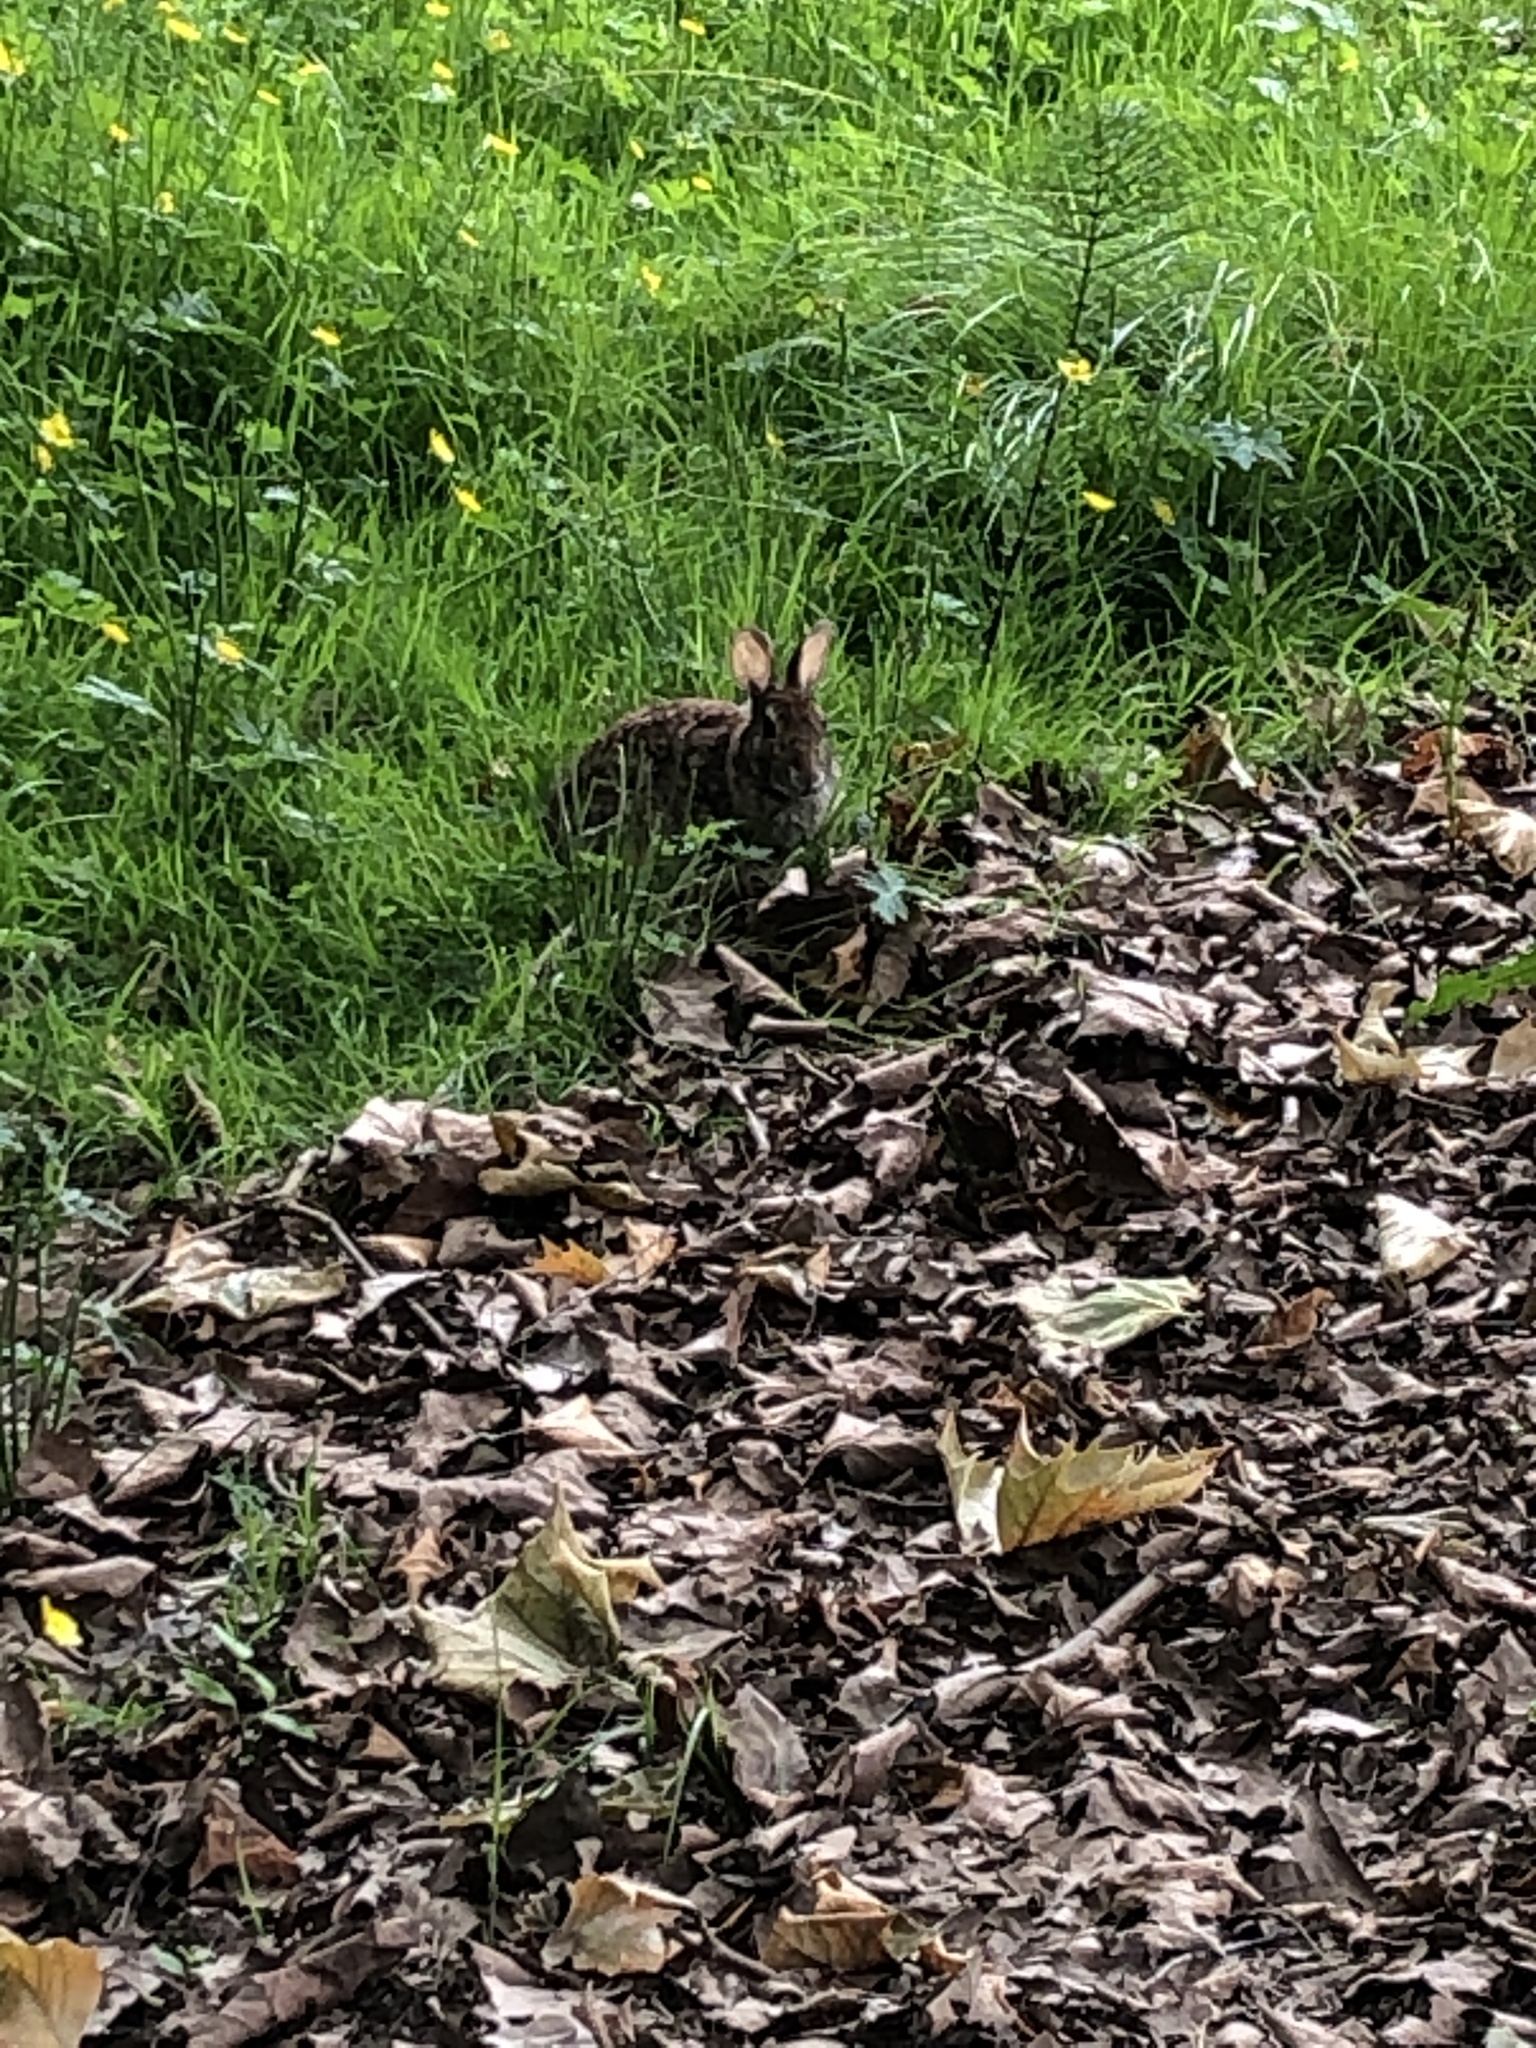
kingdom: Animalia
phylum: Chordata
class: Mammalia
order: Lagomorpha
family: Leporidae
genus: Sylvilagus
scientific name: Sylvilagus floridanus
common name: Eastern cottontail
